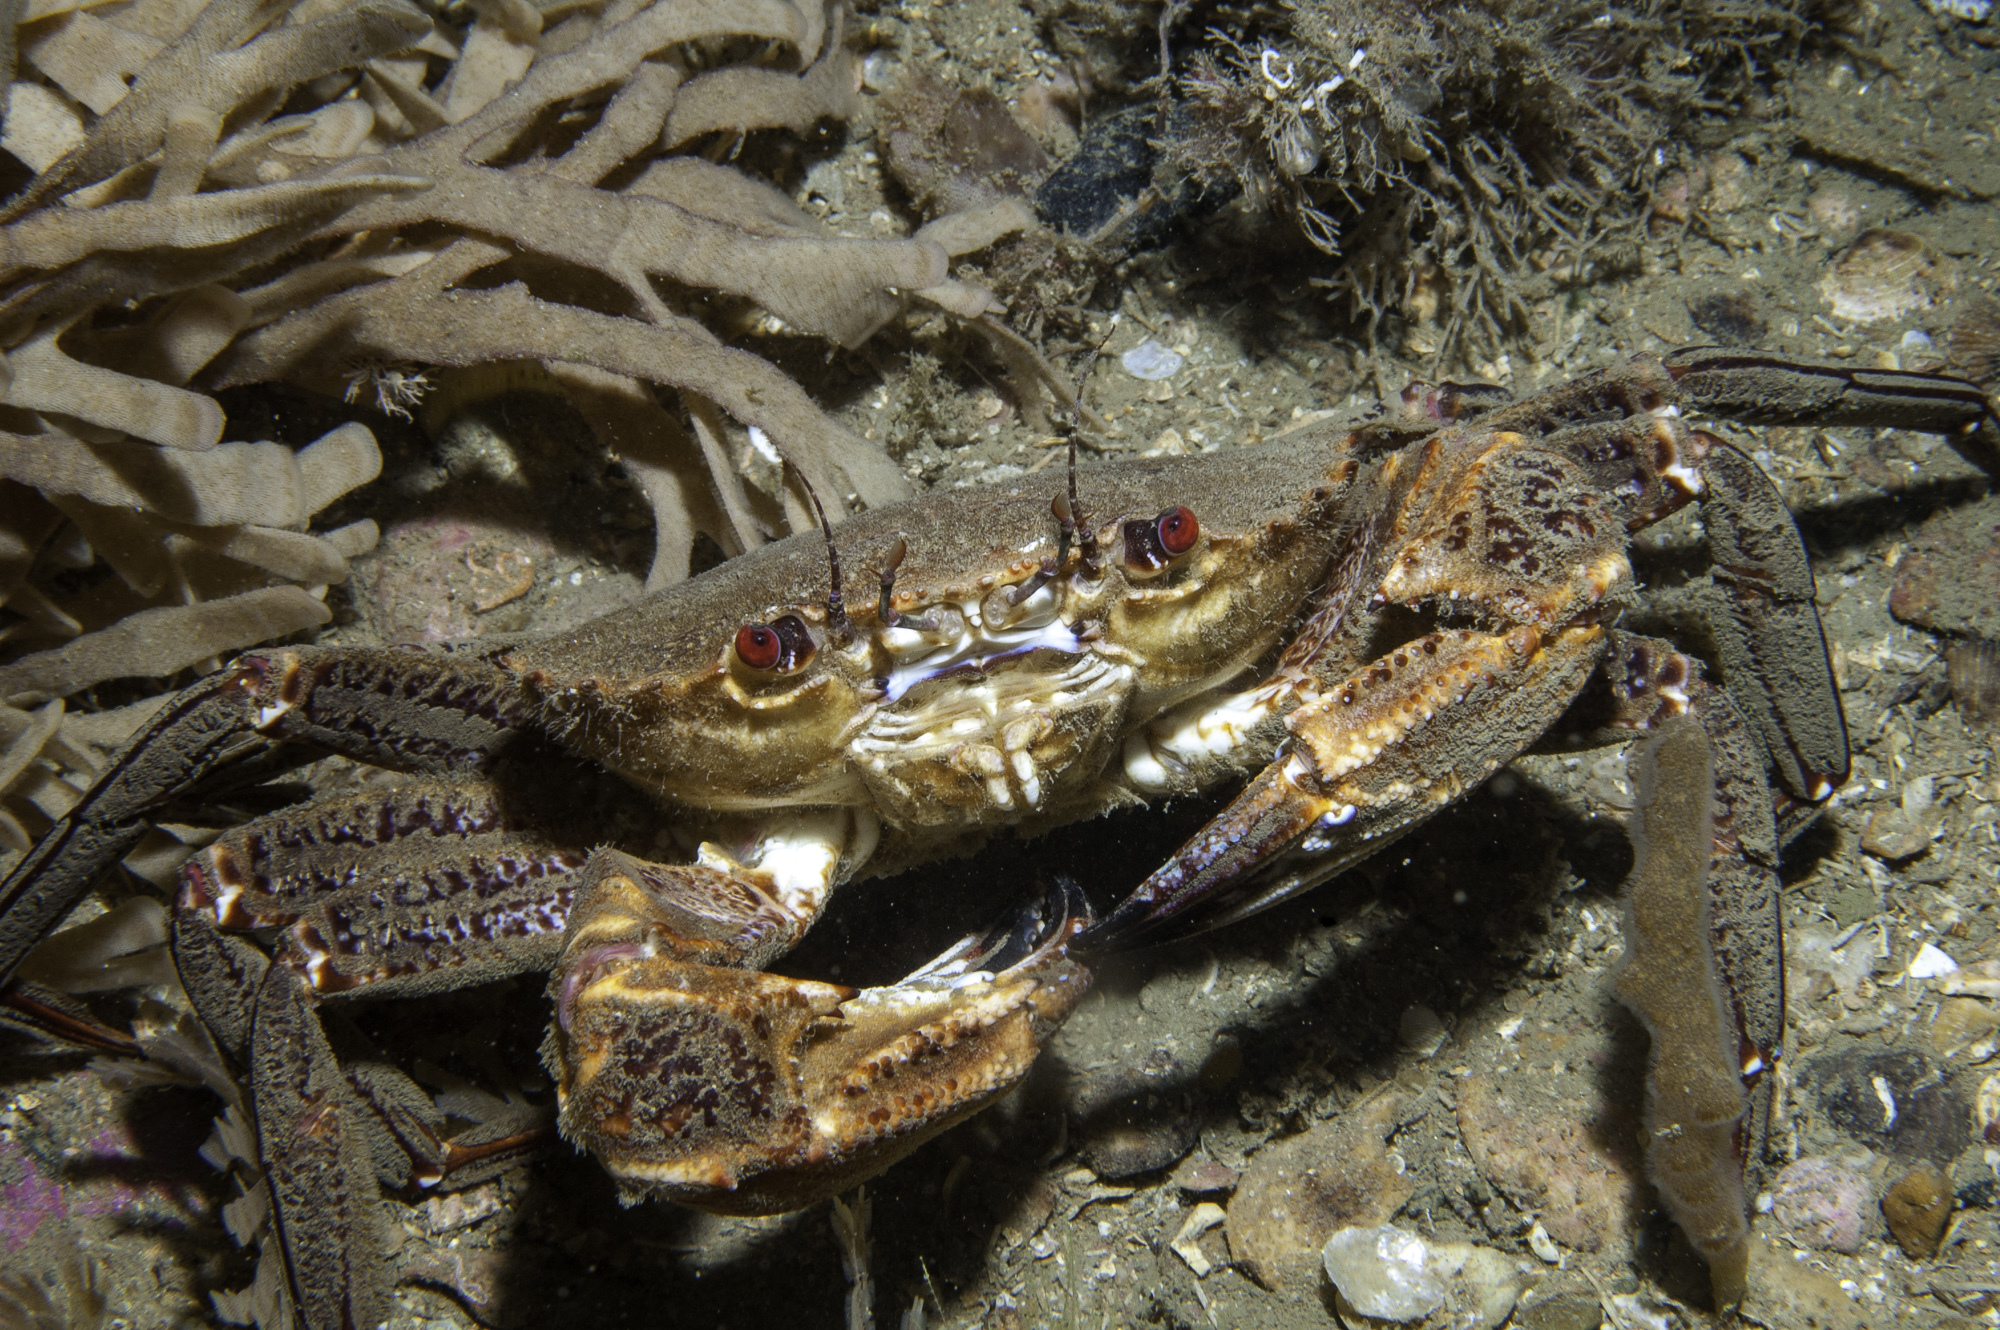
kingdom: Animalia
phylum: Arthropoda
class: Malacostraca
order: Decapoda
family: Polybiidae
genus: Necora
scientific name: Necora puber
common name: Velvet swimming crab
